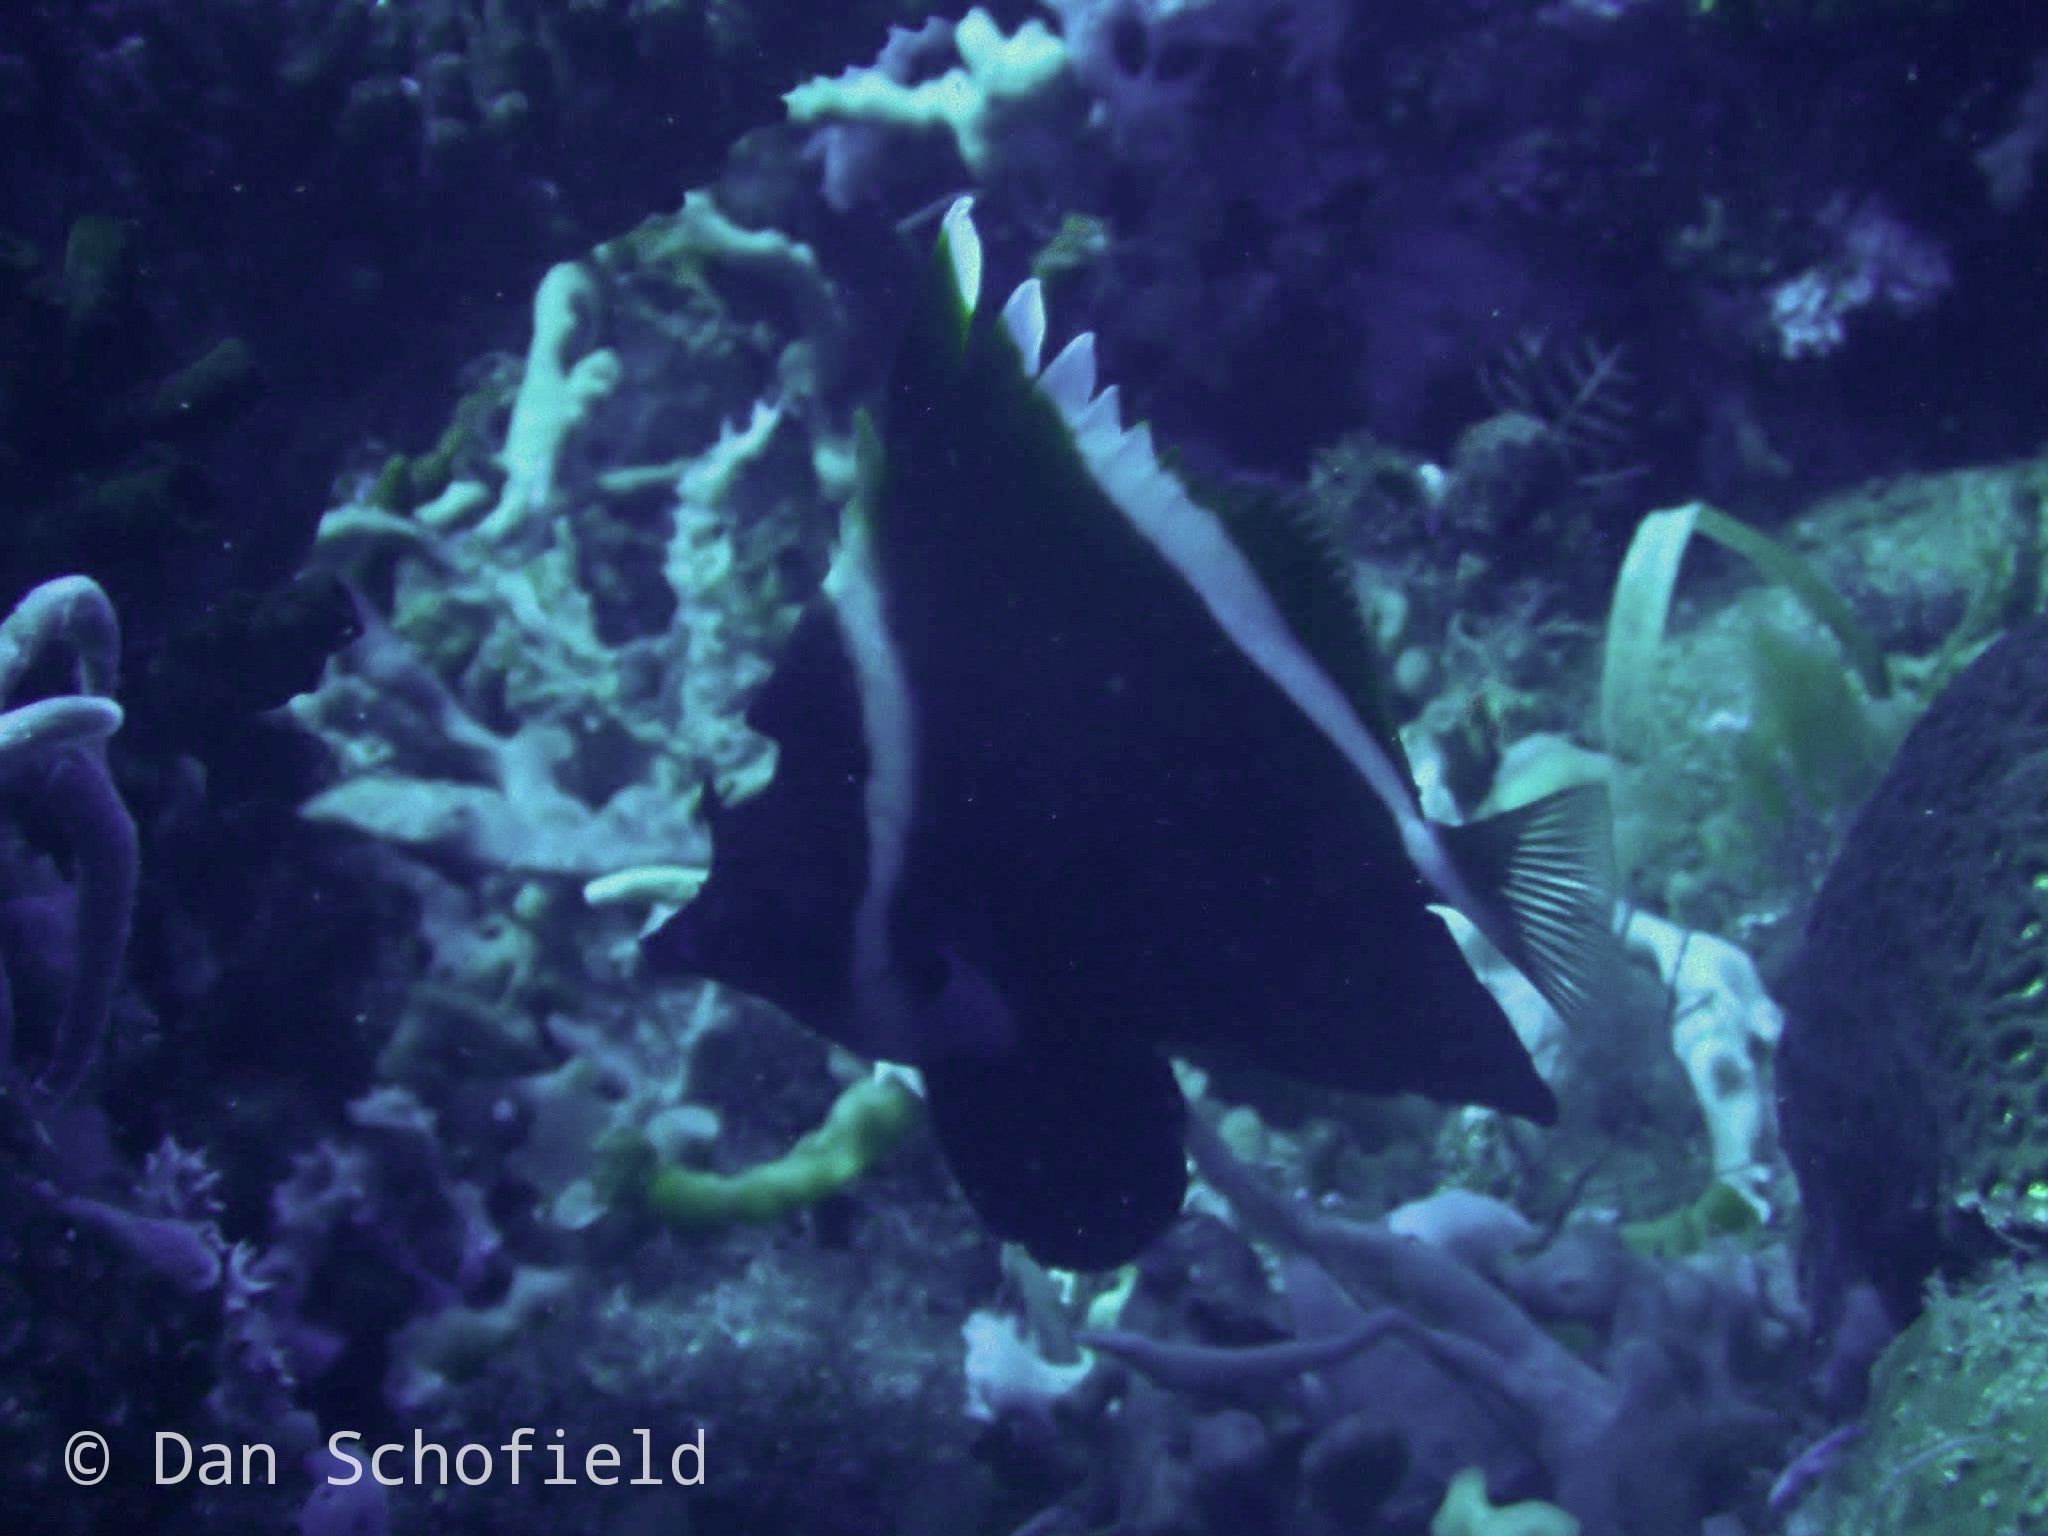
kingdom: Animalia
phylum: Chordata
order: Perciformes
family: Chaetodontidae
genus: Heniochus
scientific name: Heniochus varius
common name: Horned bannerfish
